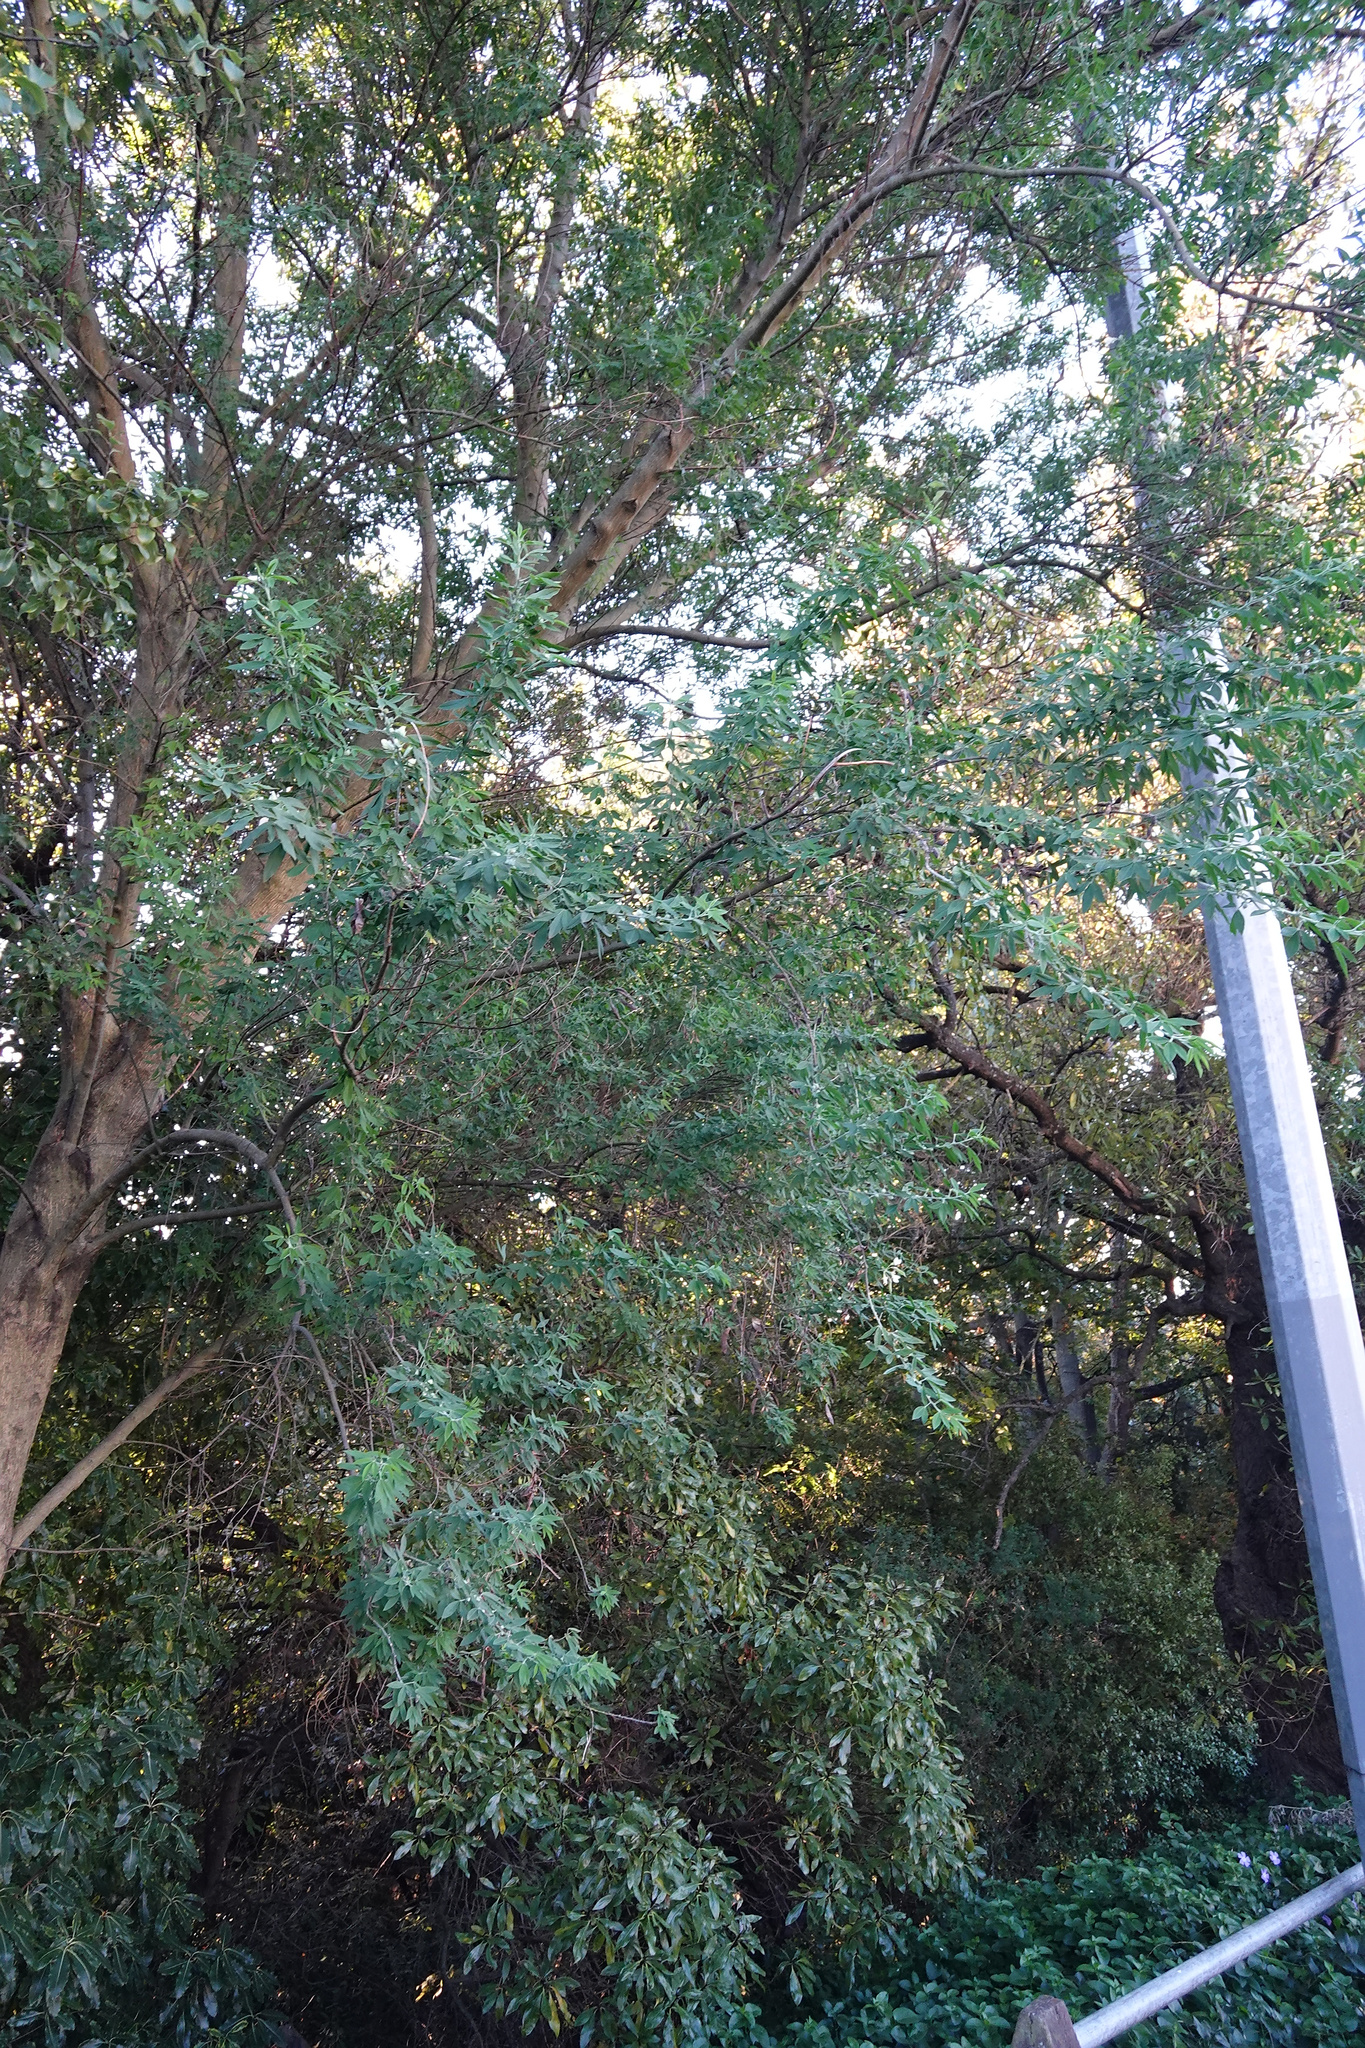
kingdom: Plantae
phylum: Tracheophyta
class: Magnoliopsida
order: Fabales
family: Fabaceae
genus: Chamaecytisus
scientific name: Chamaecytisus prolifer
